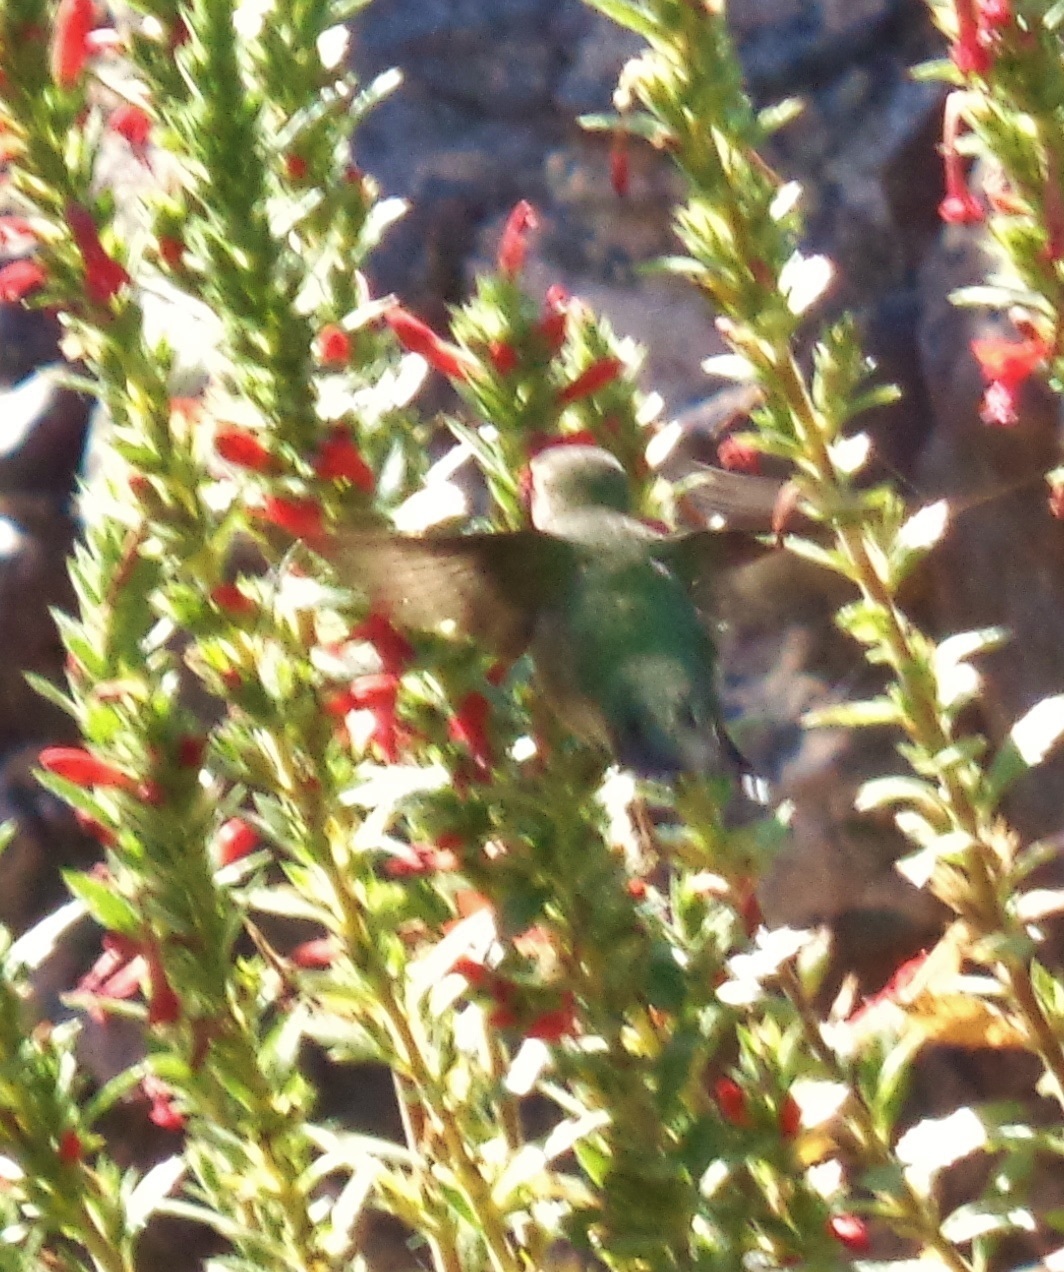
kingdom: Animalia
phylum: Chordata
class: Aves
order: Apodiformes
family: Trochilidae
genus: Selasphorus
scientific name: Selasphorus platycercus
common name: Broad-tailed hummingbird
